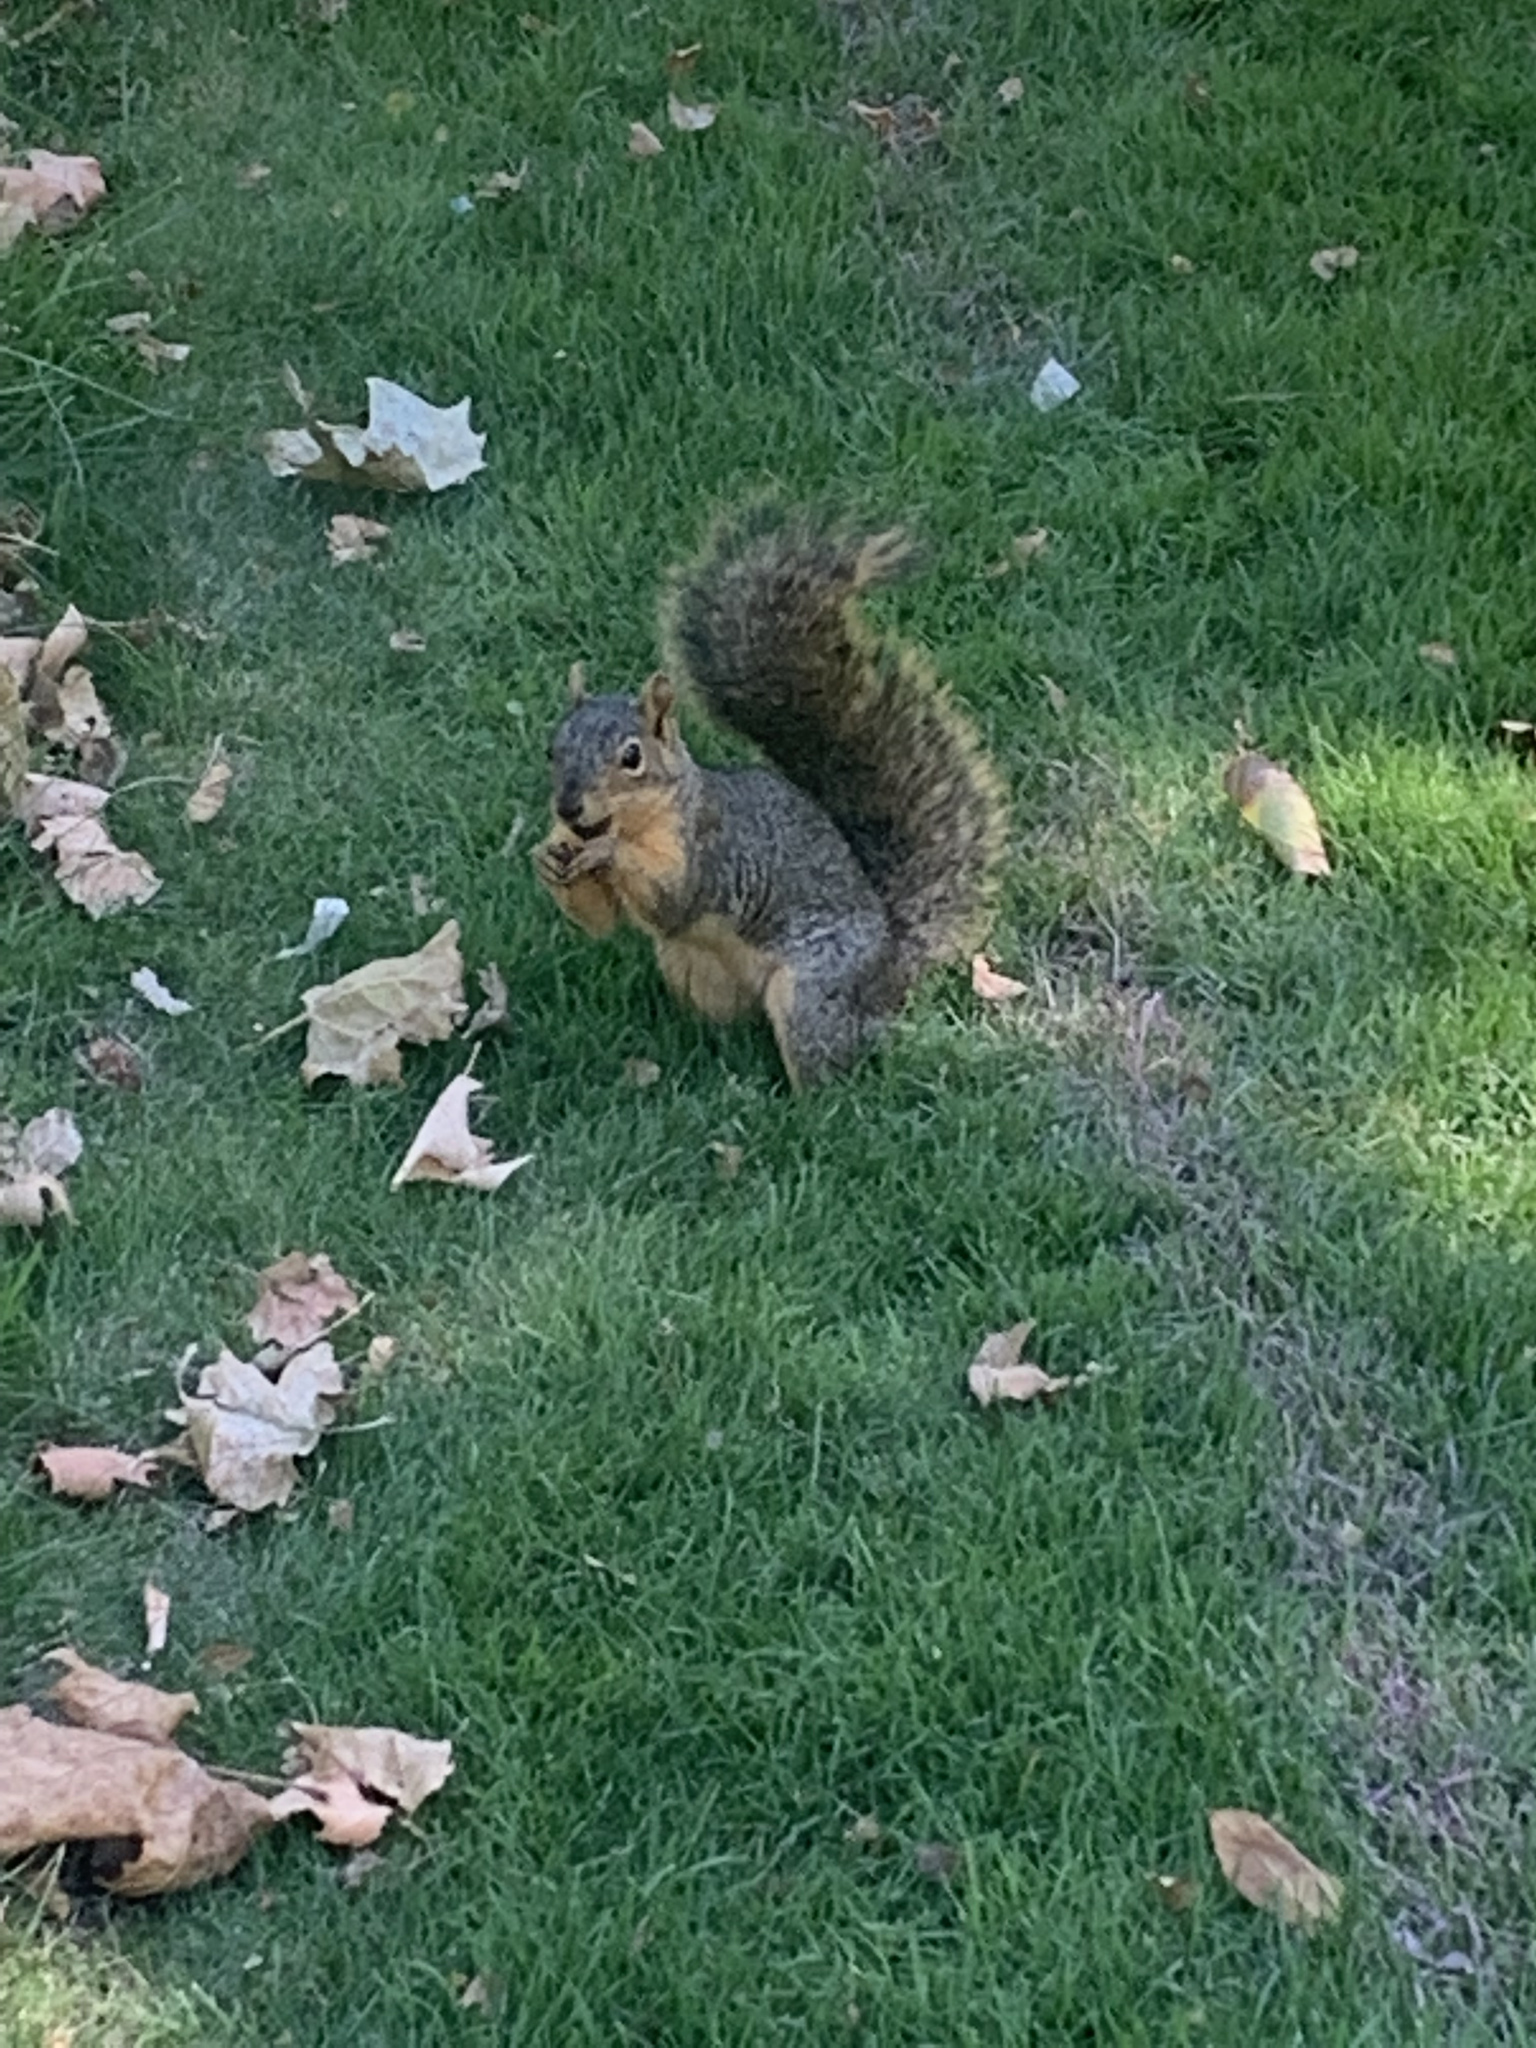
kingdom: Animalia
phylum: Chordata
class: Mammalia
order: Rodentia
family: Sciuridae
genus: Sciurus
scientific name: Sciurus niger
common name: Fox squirrel
